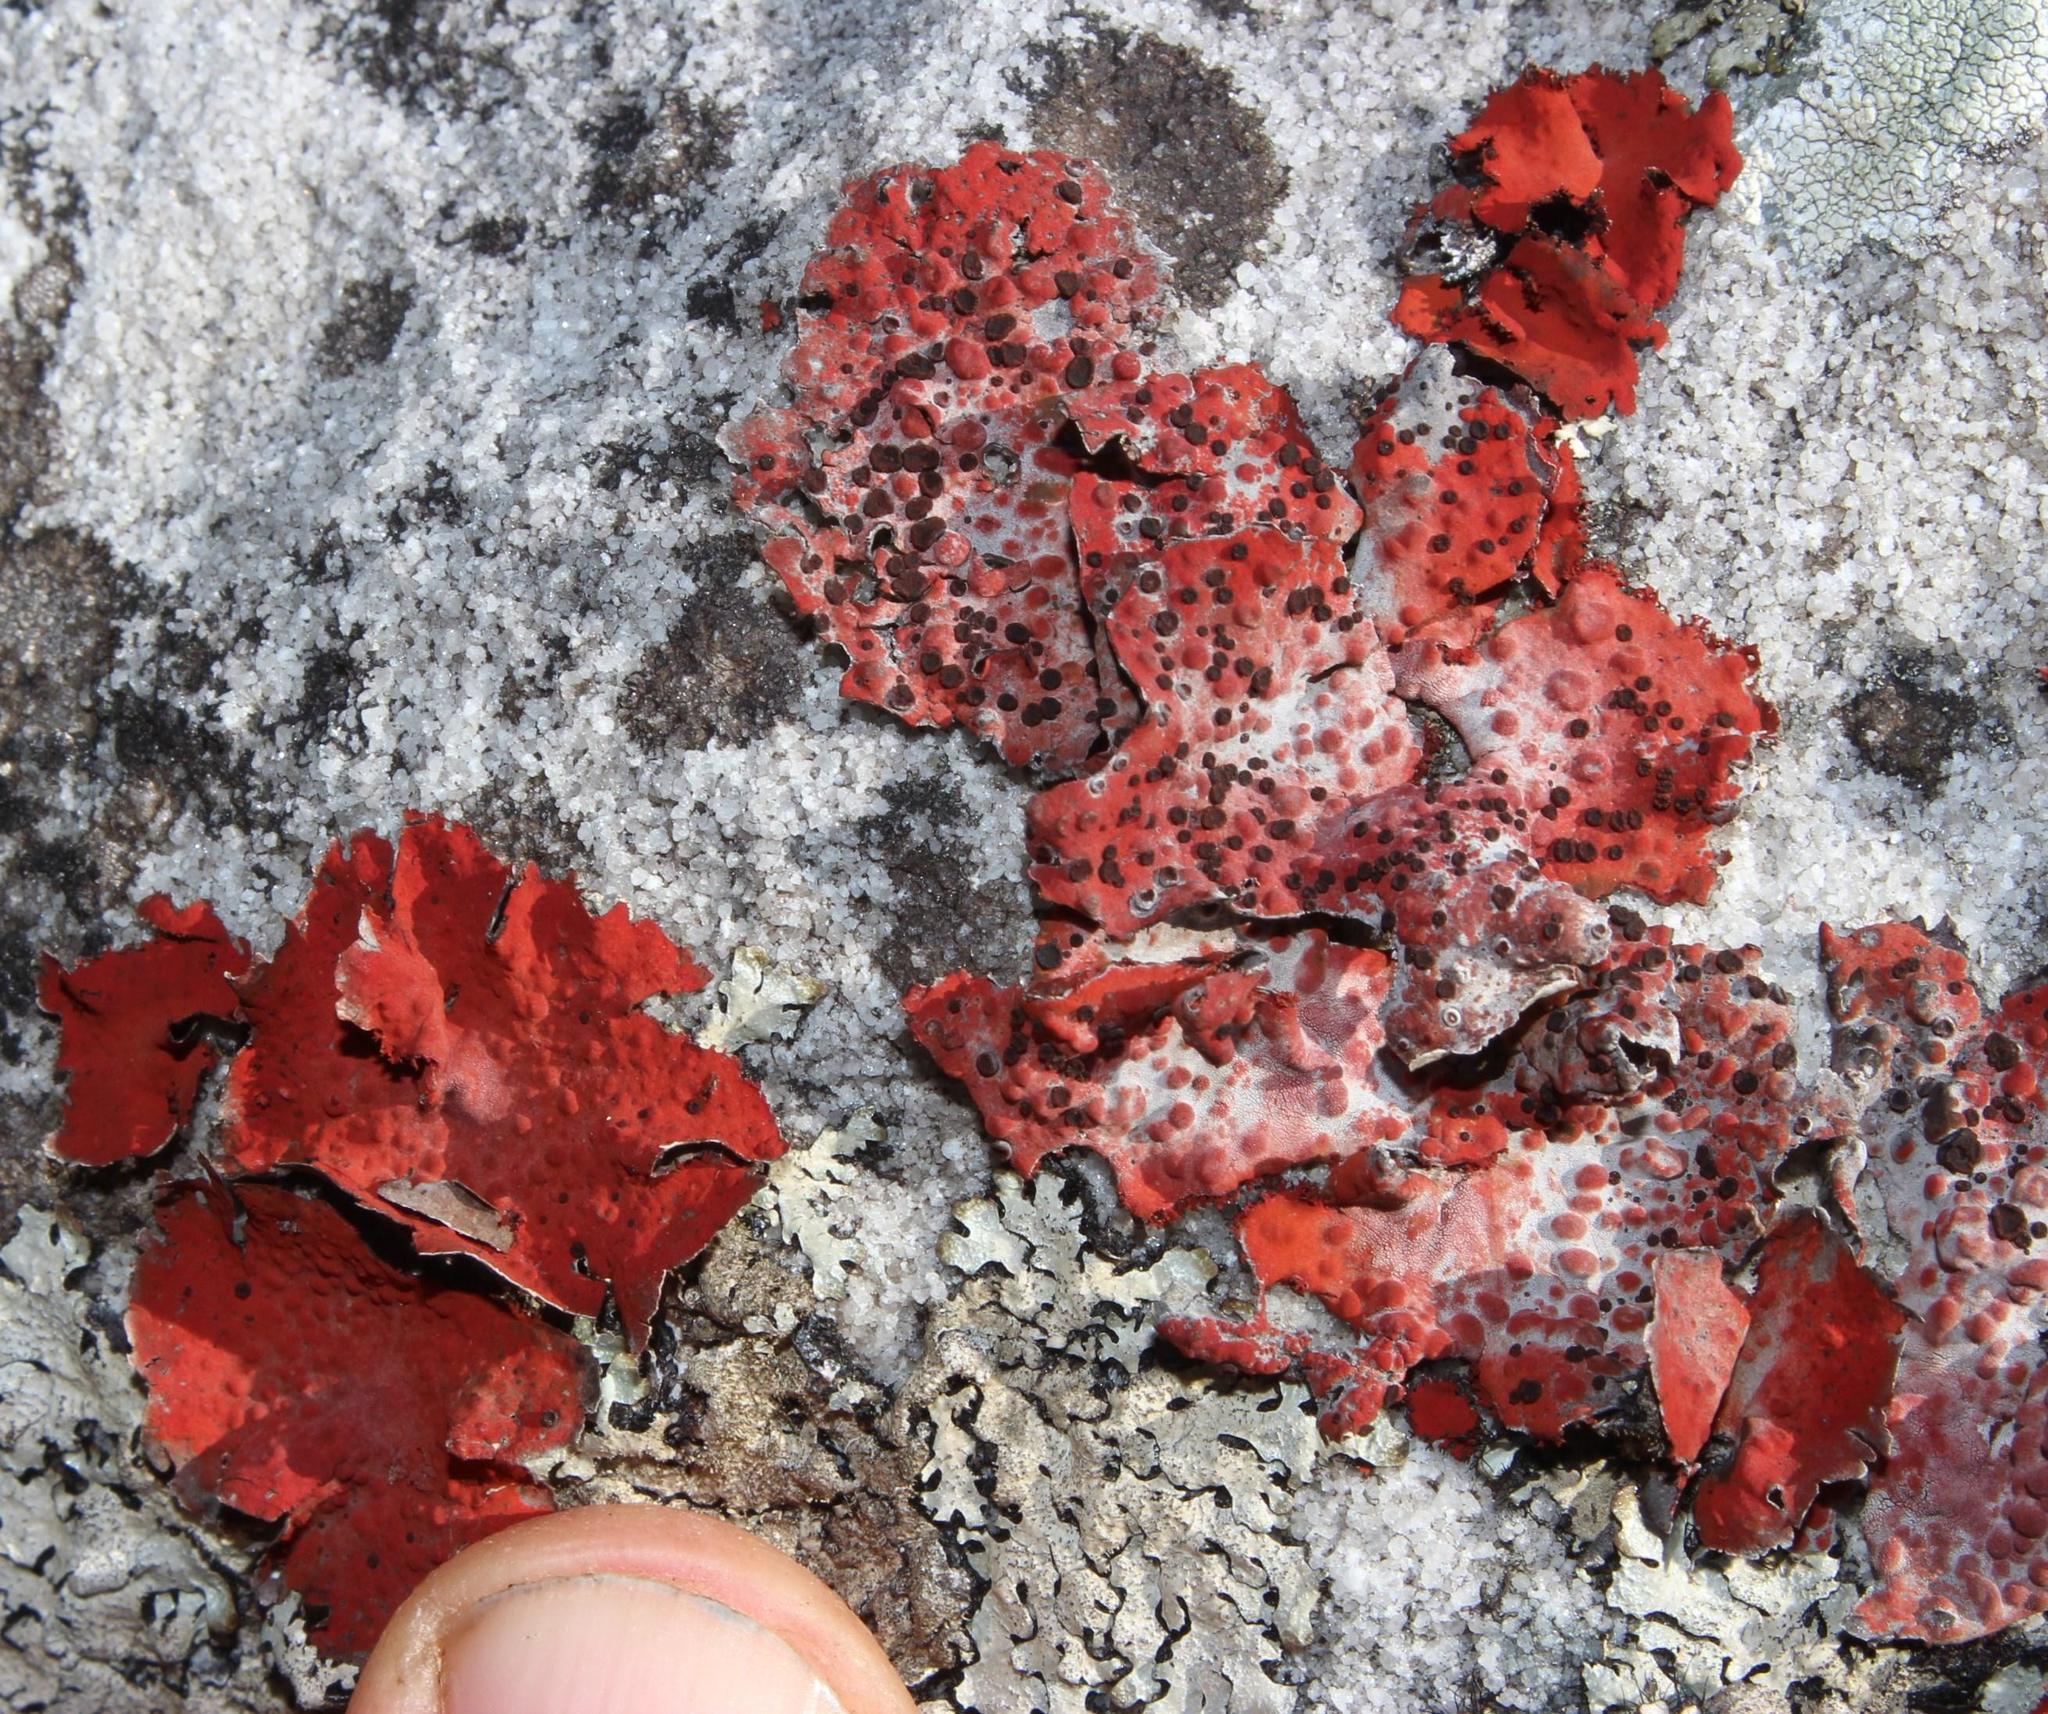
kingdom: Fungi
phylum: Ascomycota
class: Lecanoromycetes
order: Umbilicariales
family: Umbilicariaceae
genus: Lasallia
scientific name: Lasallia rubiginosa
